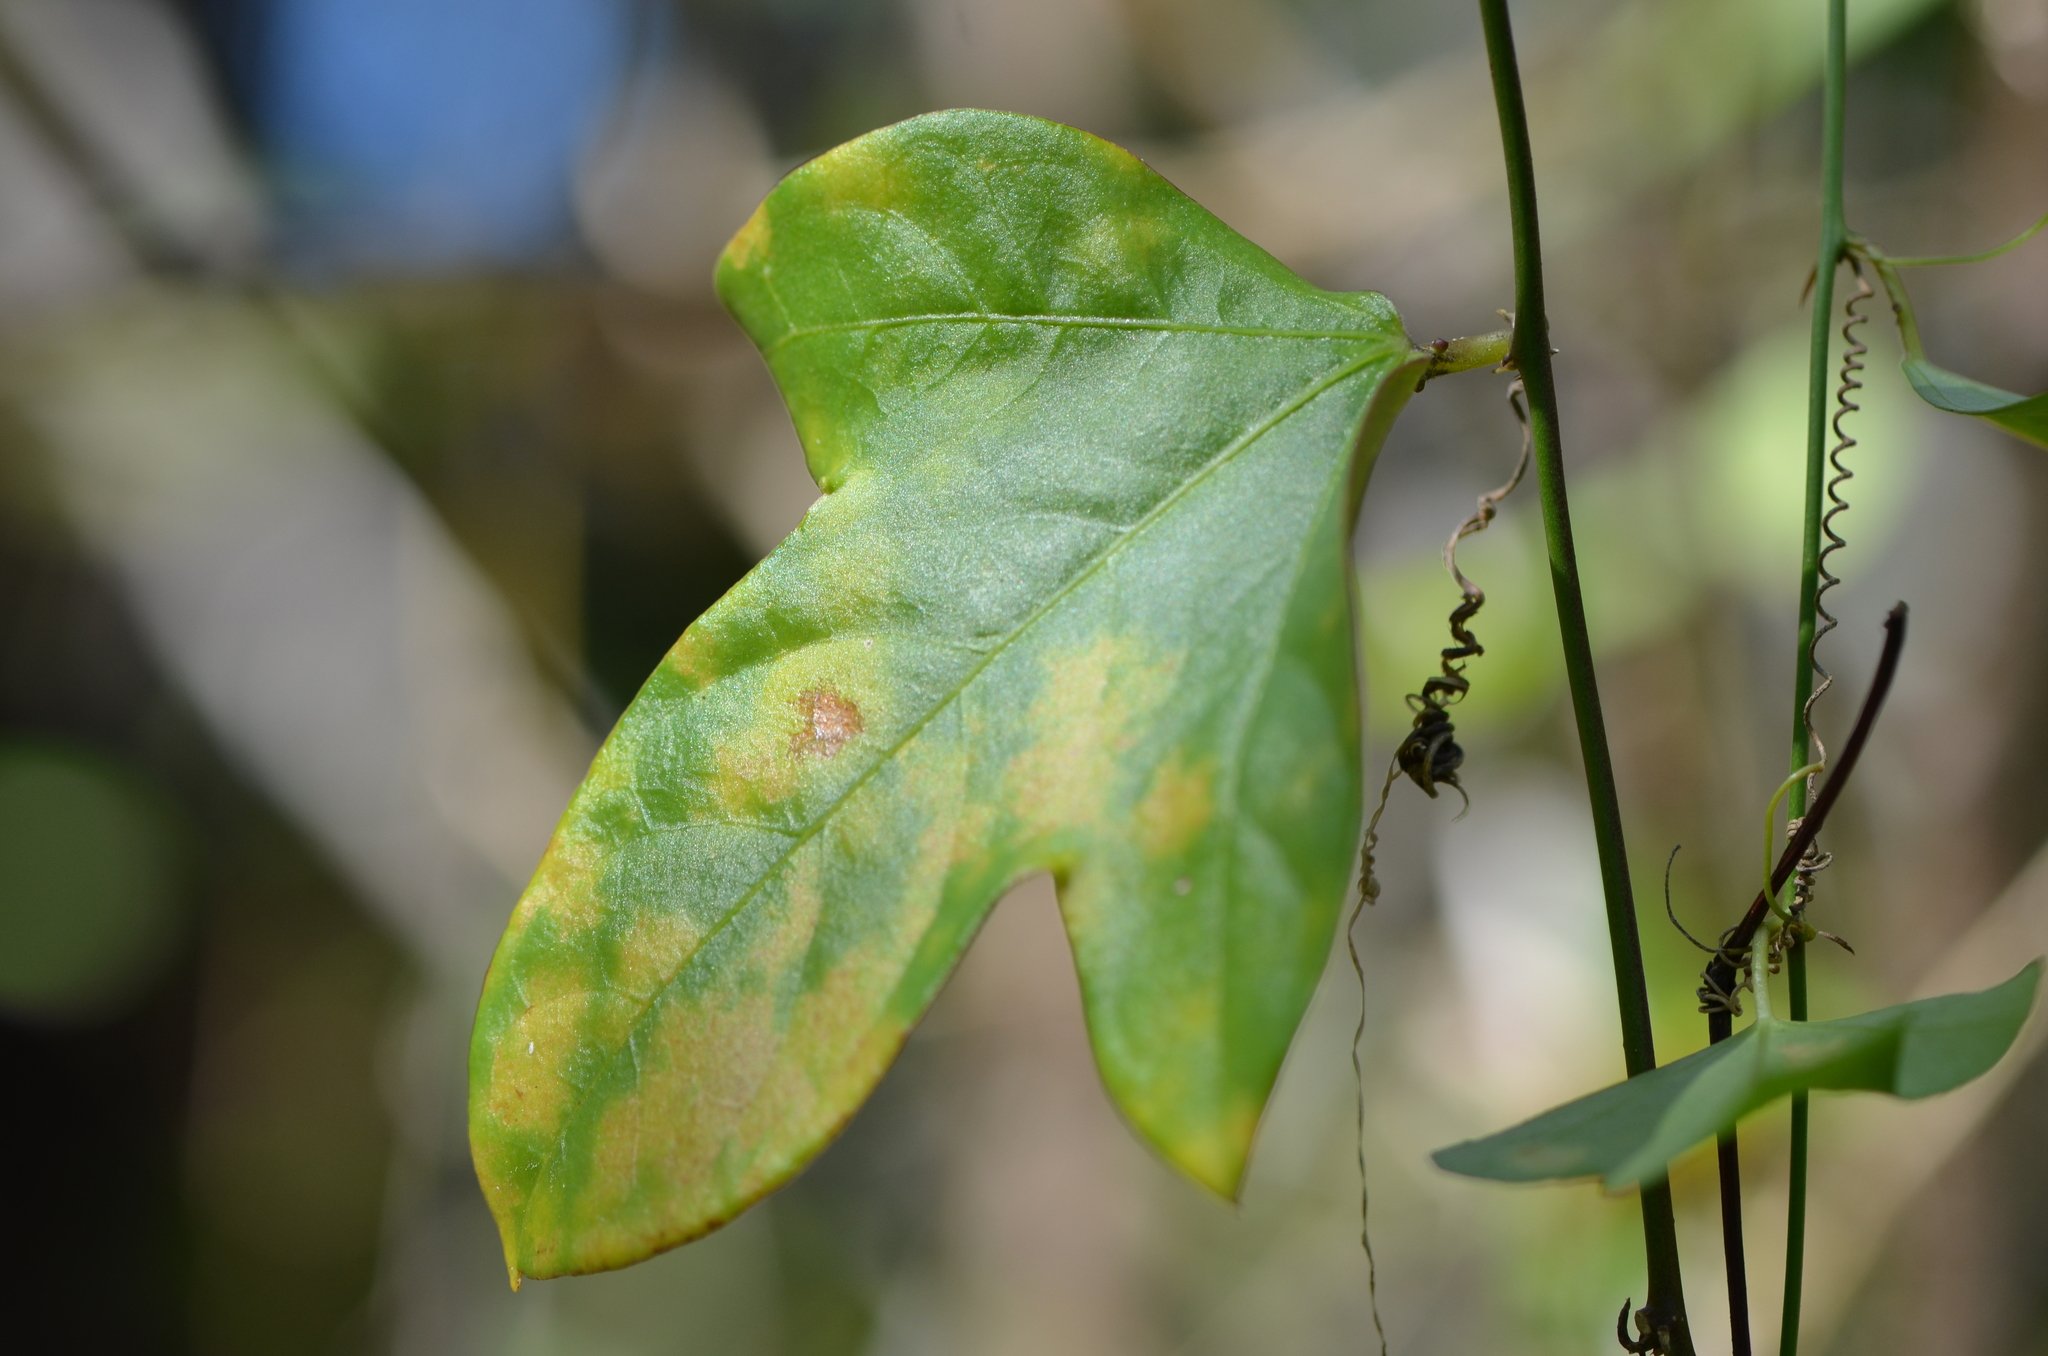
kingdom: Plantae
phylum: Tracheophyta
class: Magnoliopsida
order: Malpighiales
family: Passifloraceae
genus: Passiflora
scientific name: Passiflora pallida
